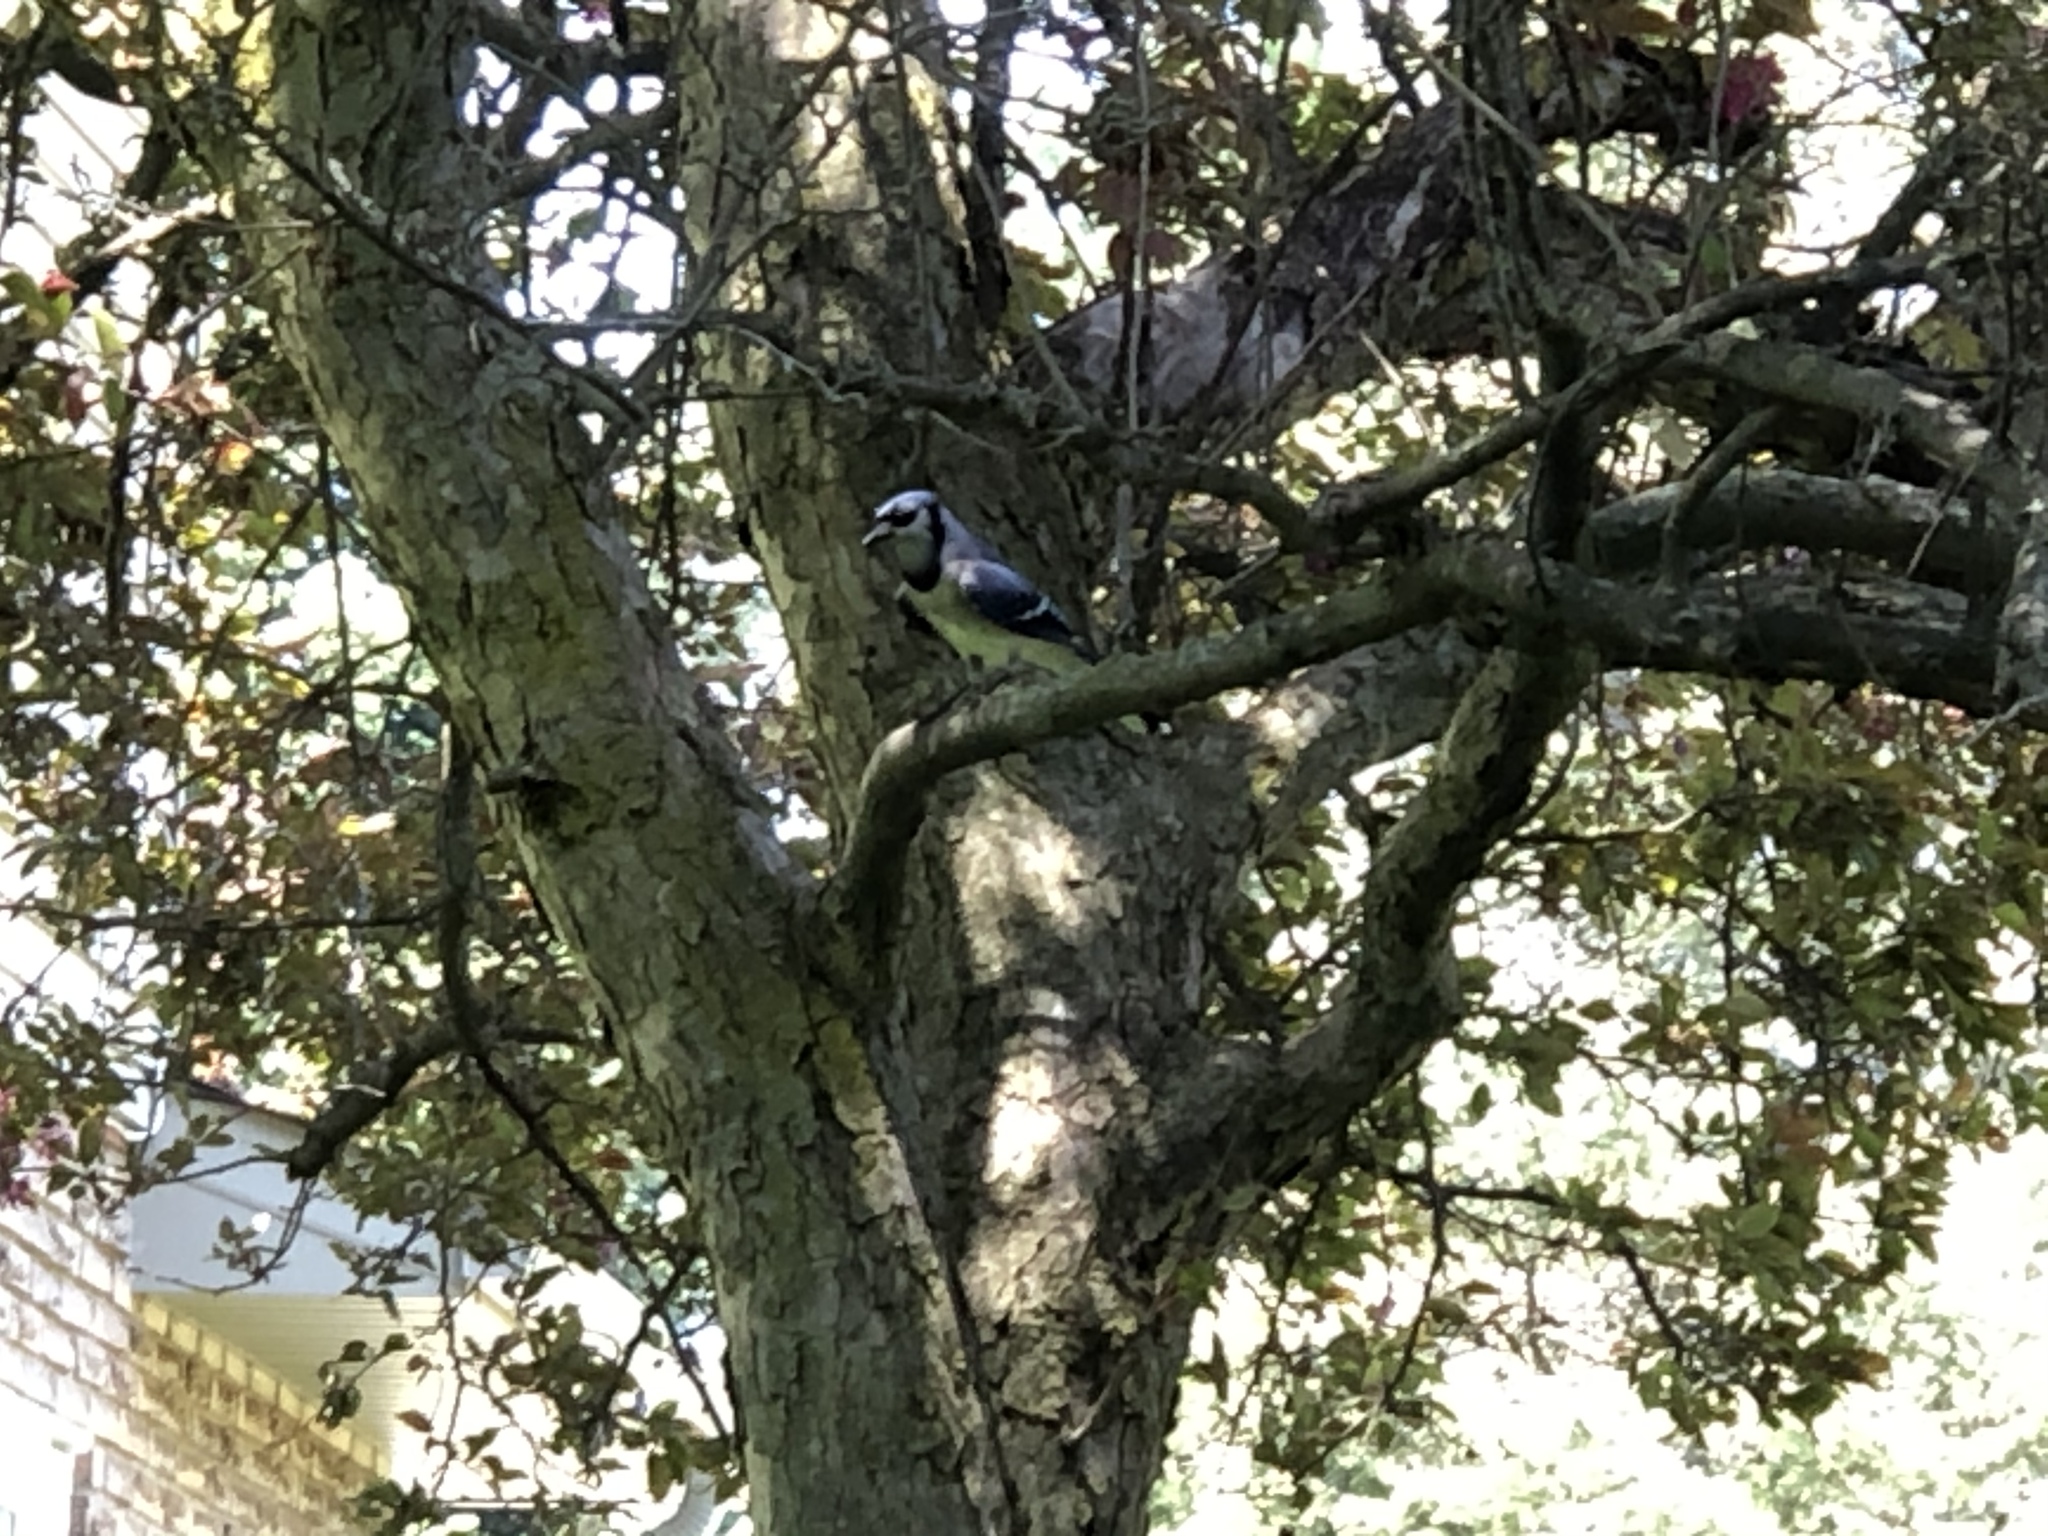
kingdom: Animalia
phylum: Chordata
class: Aves
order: Passeriformes
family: Corvidae
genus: Cyanocitta
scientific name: Cyanocitta cristata
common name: Blue jay
